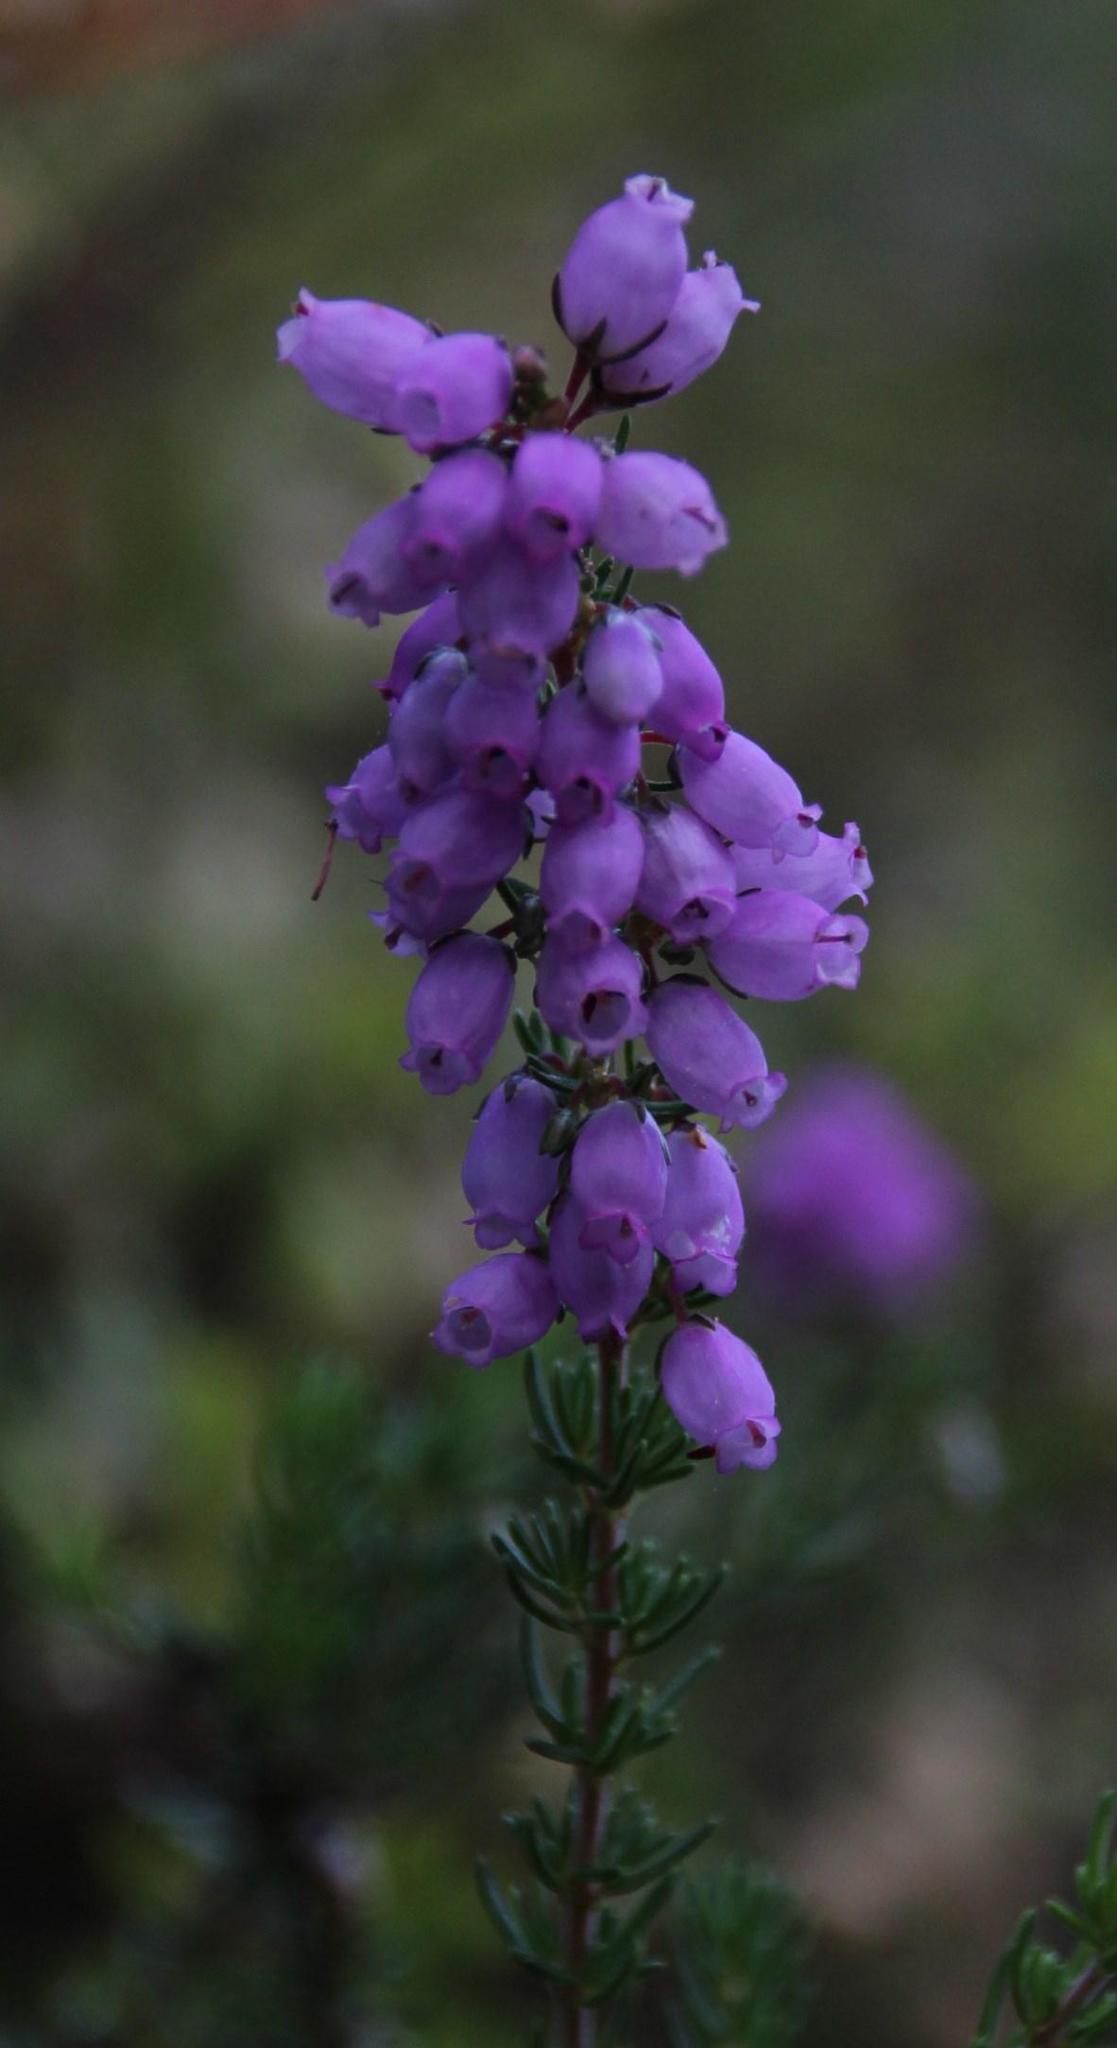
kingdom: Plantae
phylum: Tracheophyta
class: Magnoliopsida
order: Ericales
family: Ericaceae
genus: Erica
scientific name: Erica cinerea
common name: Bell heather
